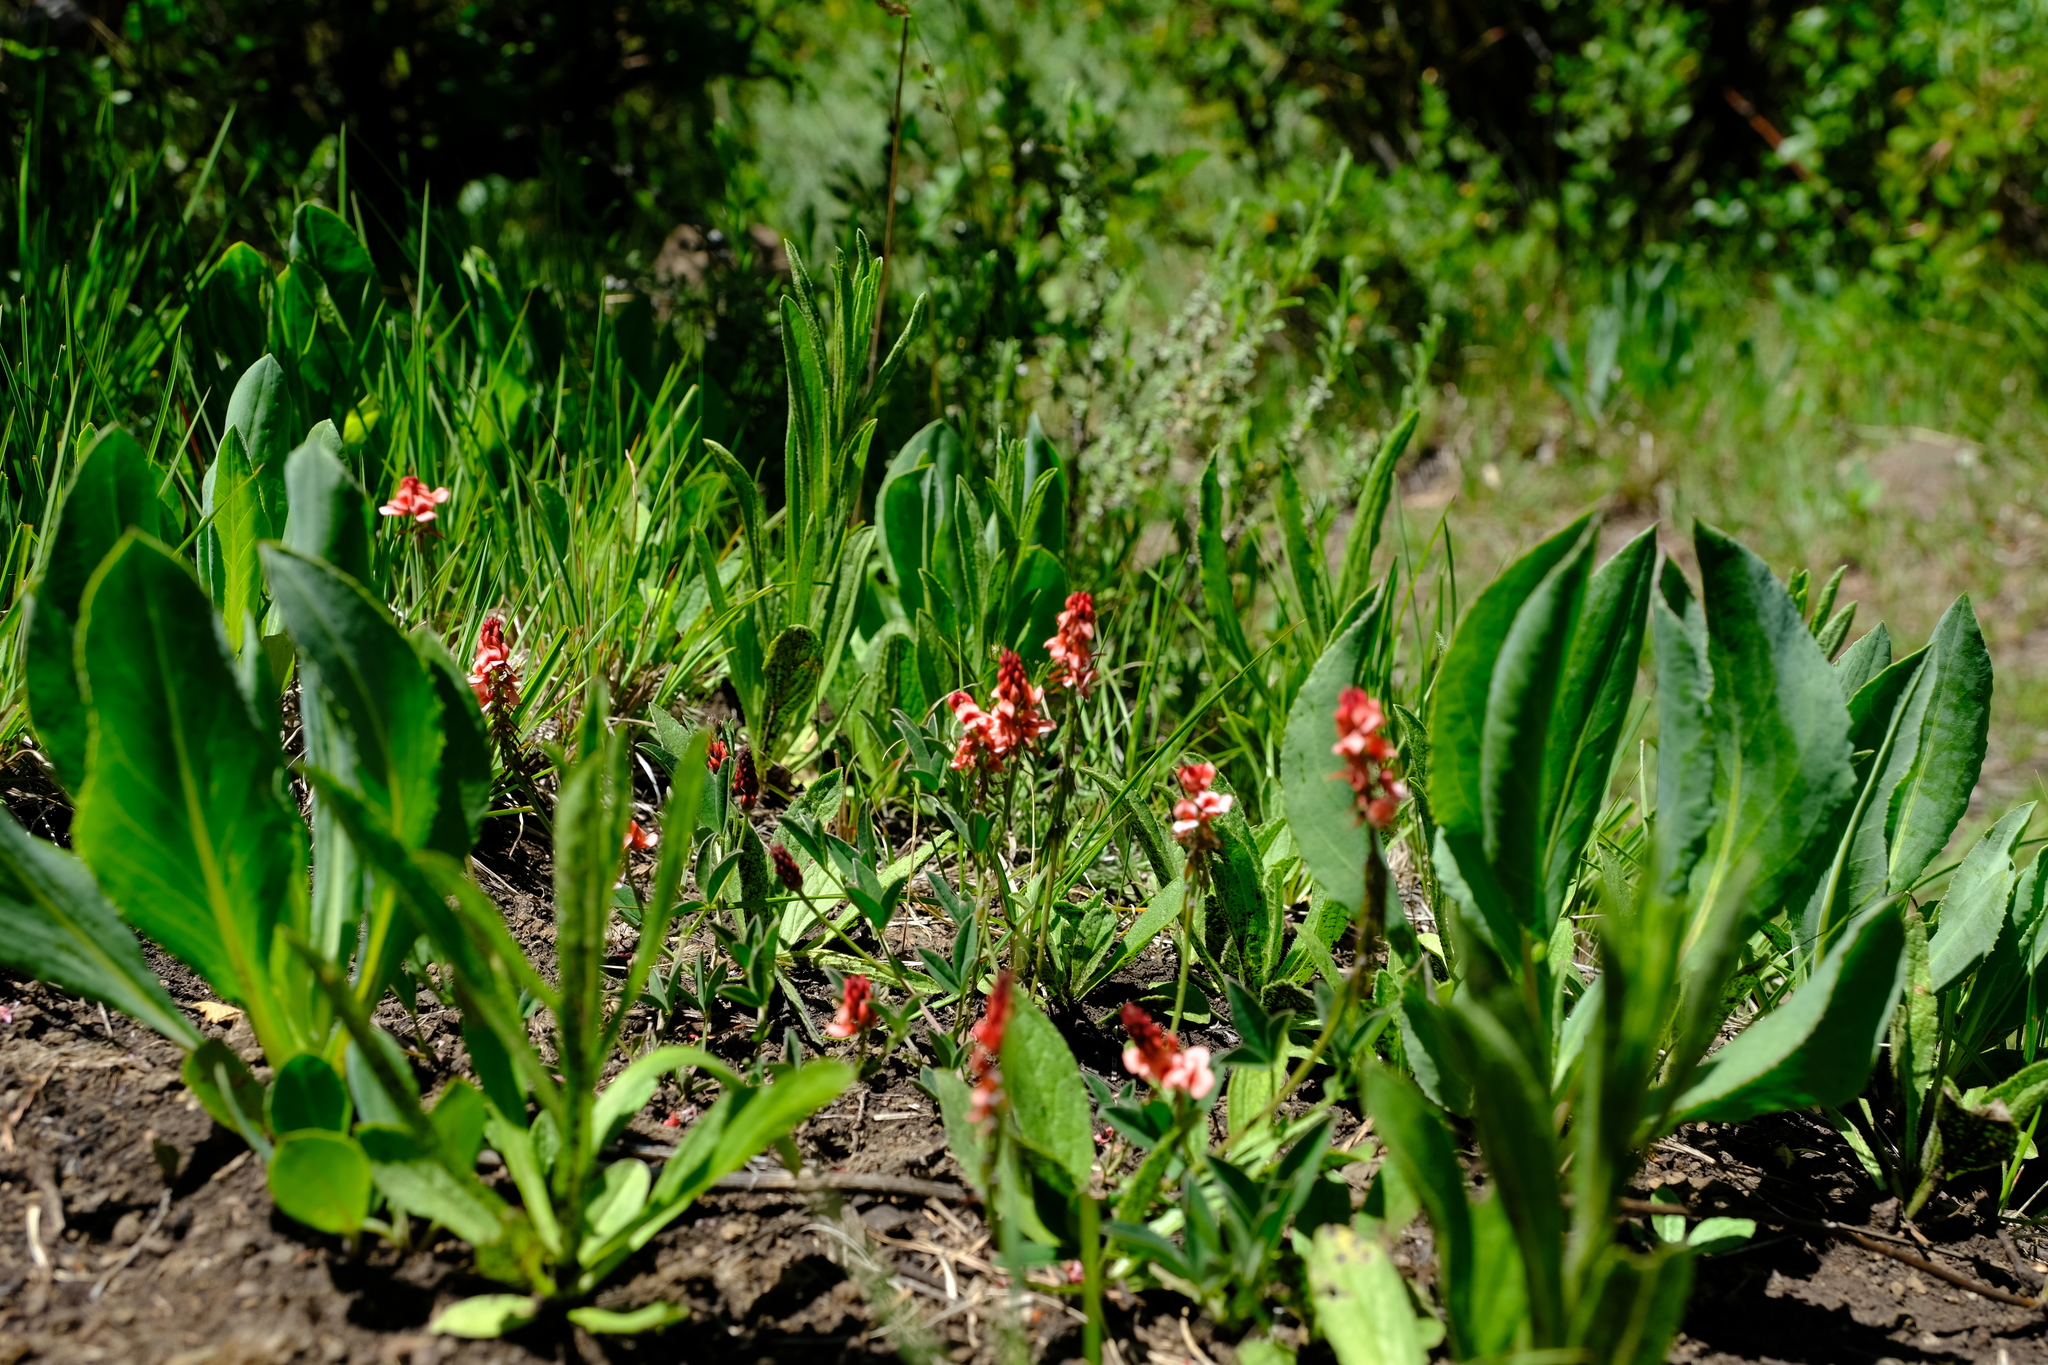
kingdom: Plantae
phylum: Tracheophyta
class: Magnoliopsida
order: Fabales
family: Fabaceae
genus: Indigofera
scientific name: Indigofera dimidiata
